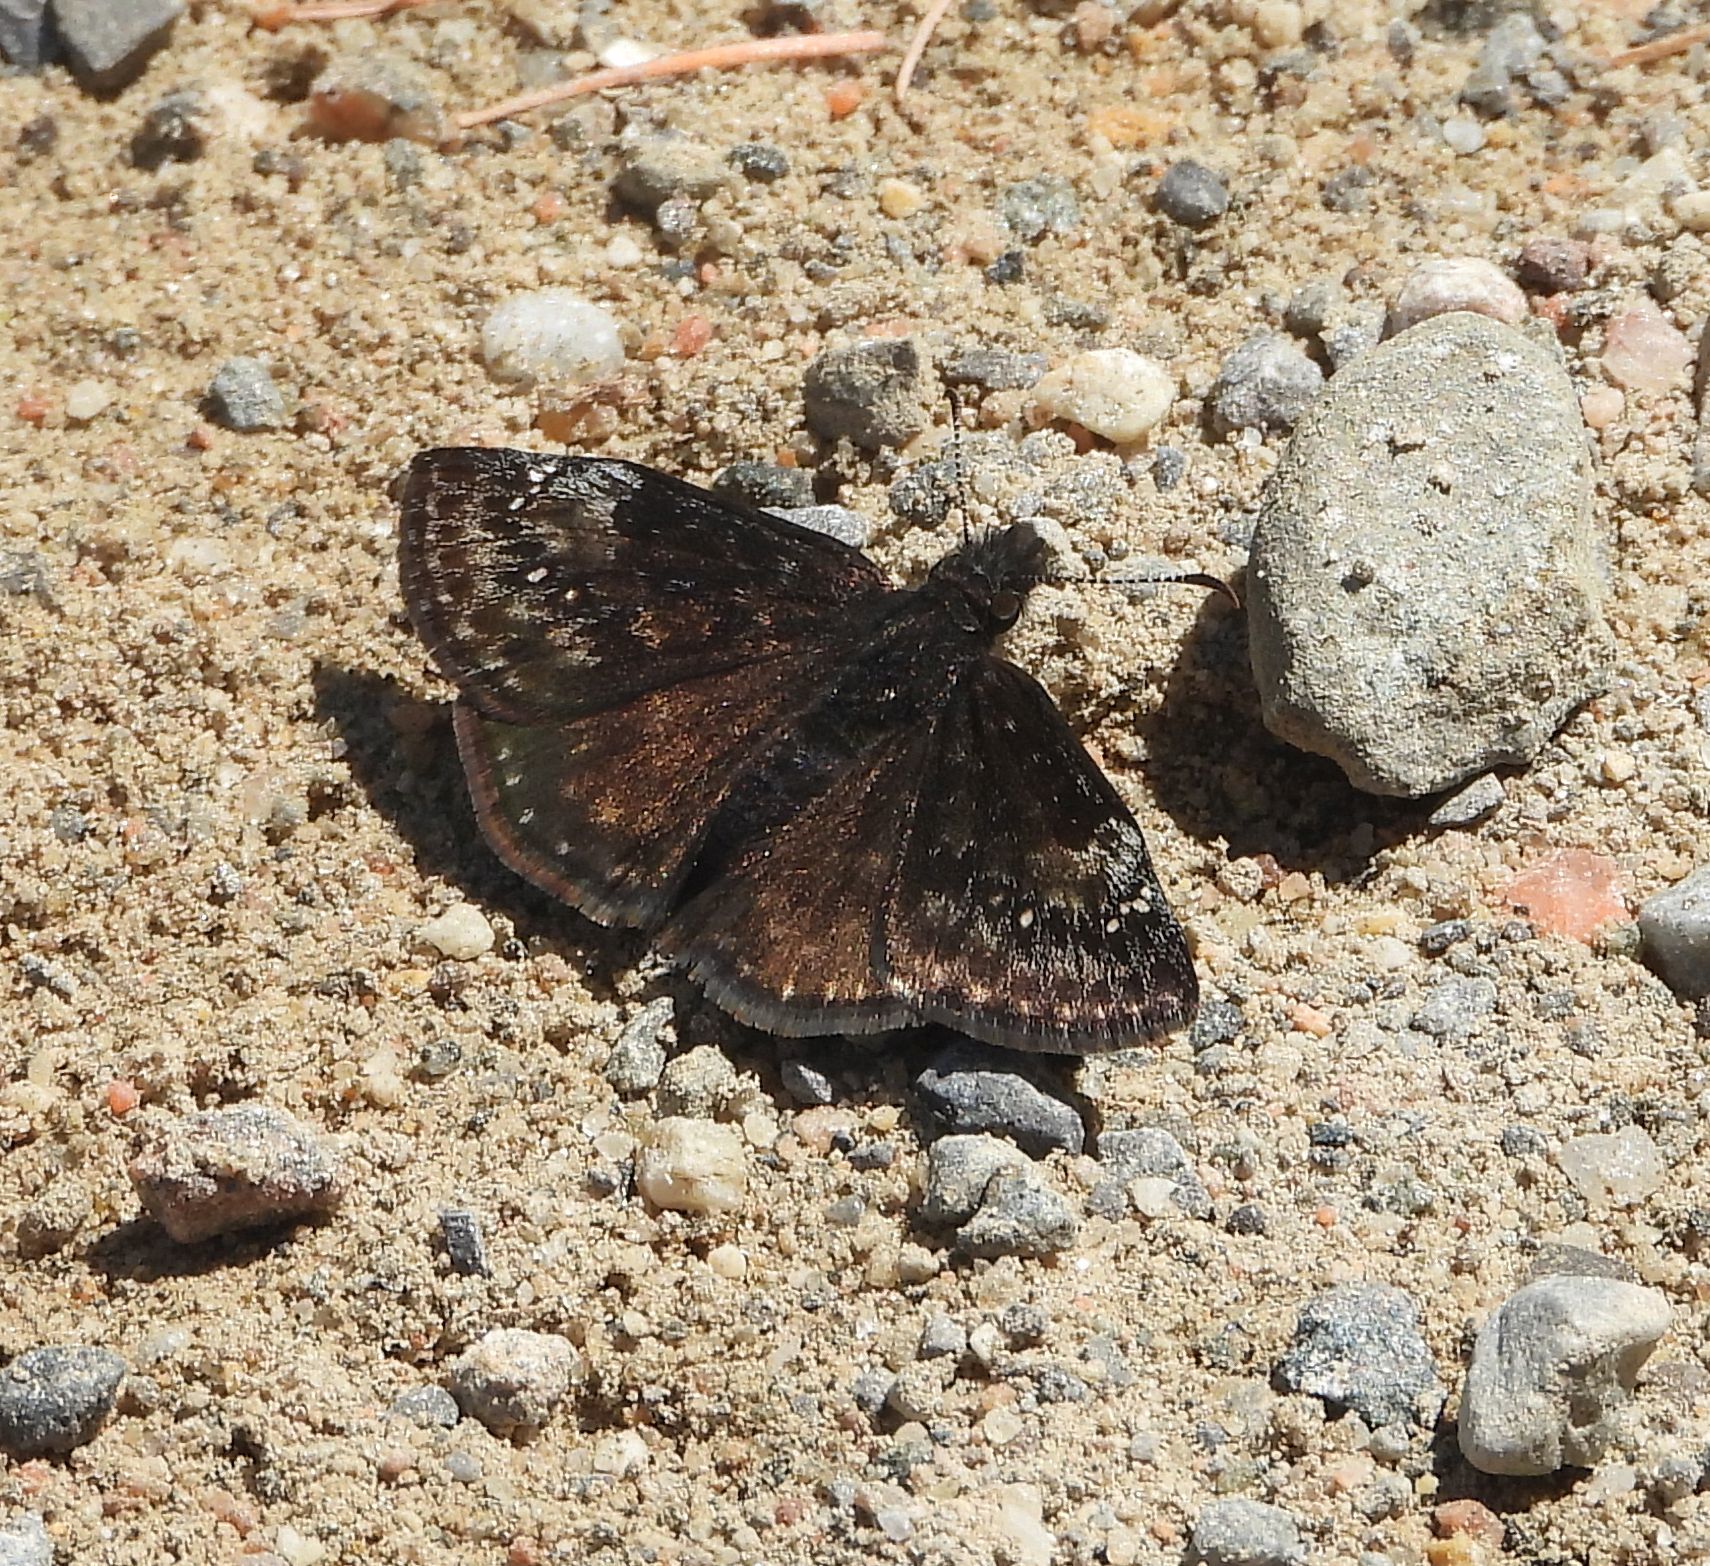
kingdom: Animalia
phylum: Arthropoda
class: Insecta
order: Lepidoptera
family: Hesperiidae
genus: Erynnis
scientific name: Erynnis lucilius
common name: Columbine duskywing
